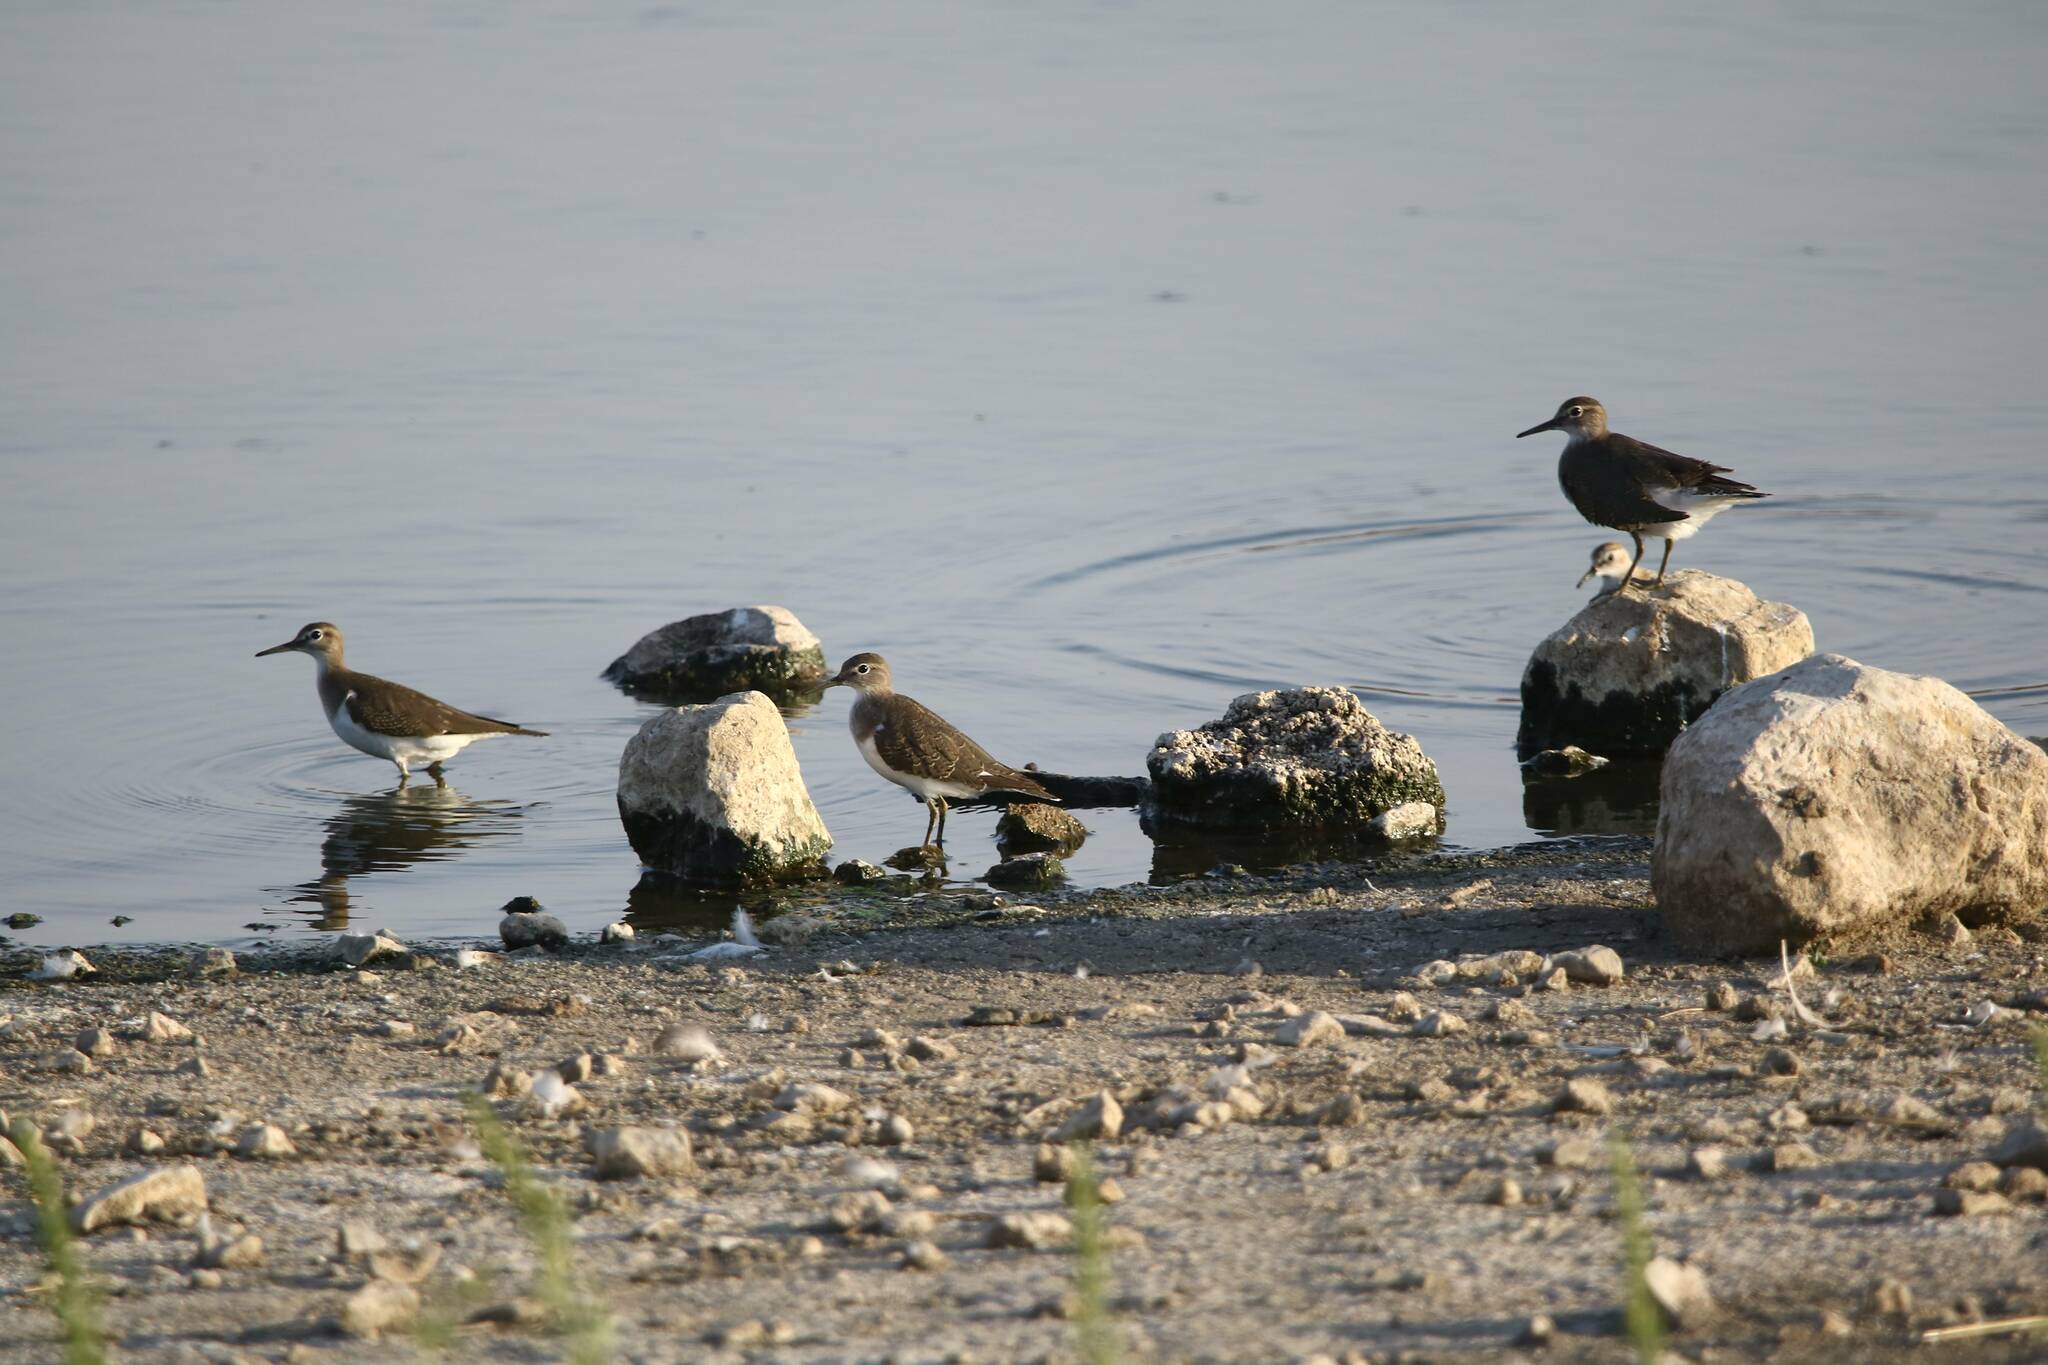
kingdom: Animalia
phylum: Chordata
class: Aves
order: Charadriiformes
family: Scolopacidae
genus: Actitis
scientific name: Actitis hypoleucos
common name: Common sandpiper
